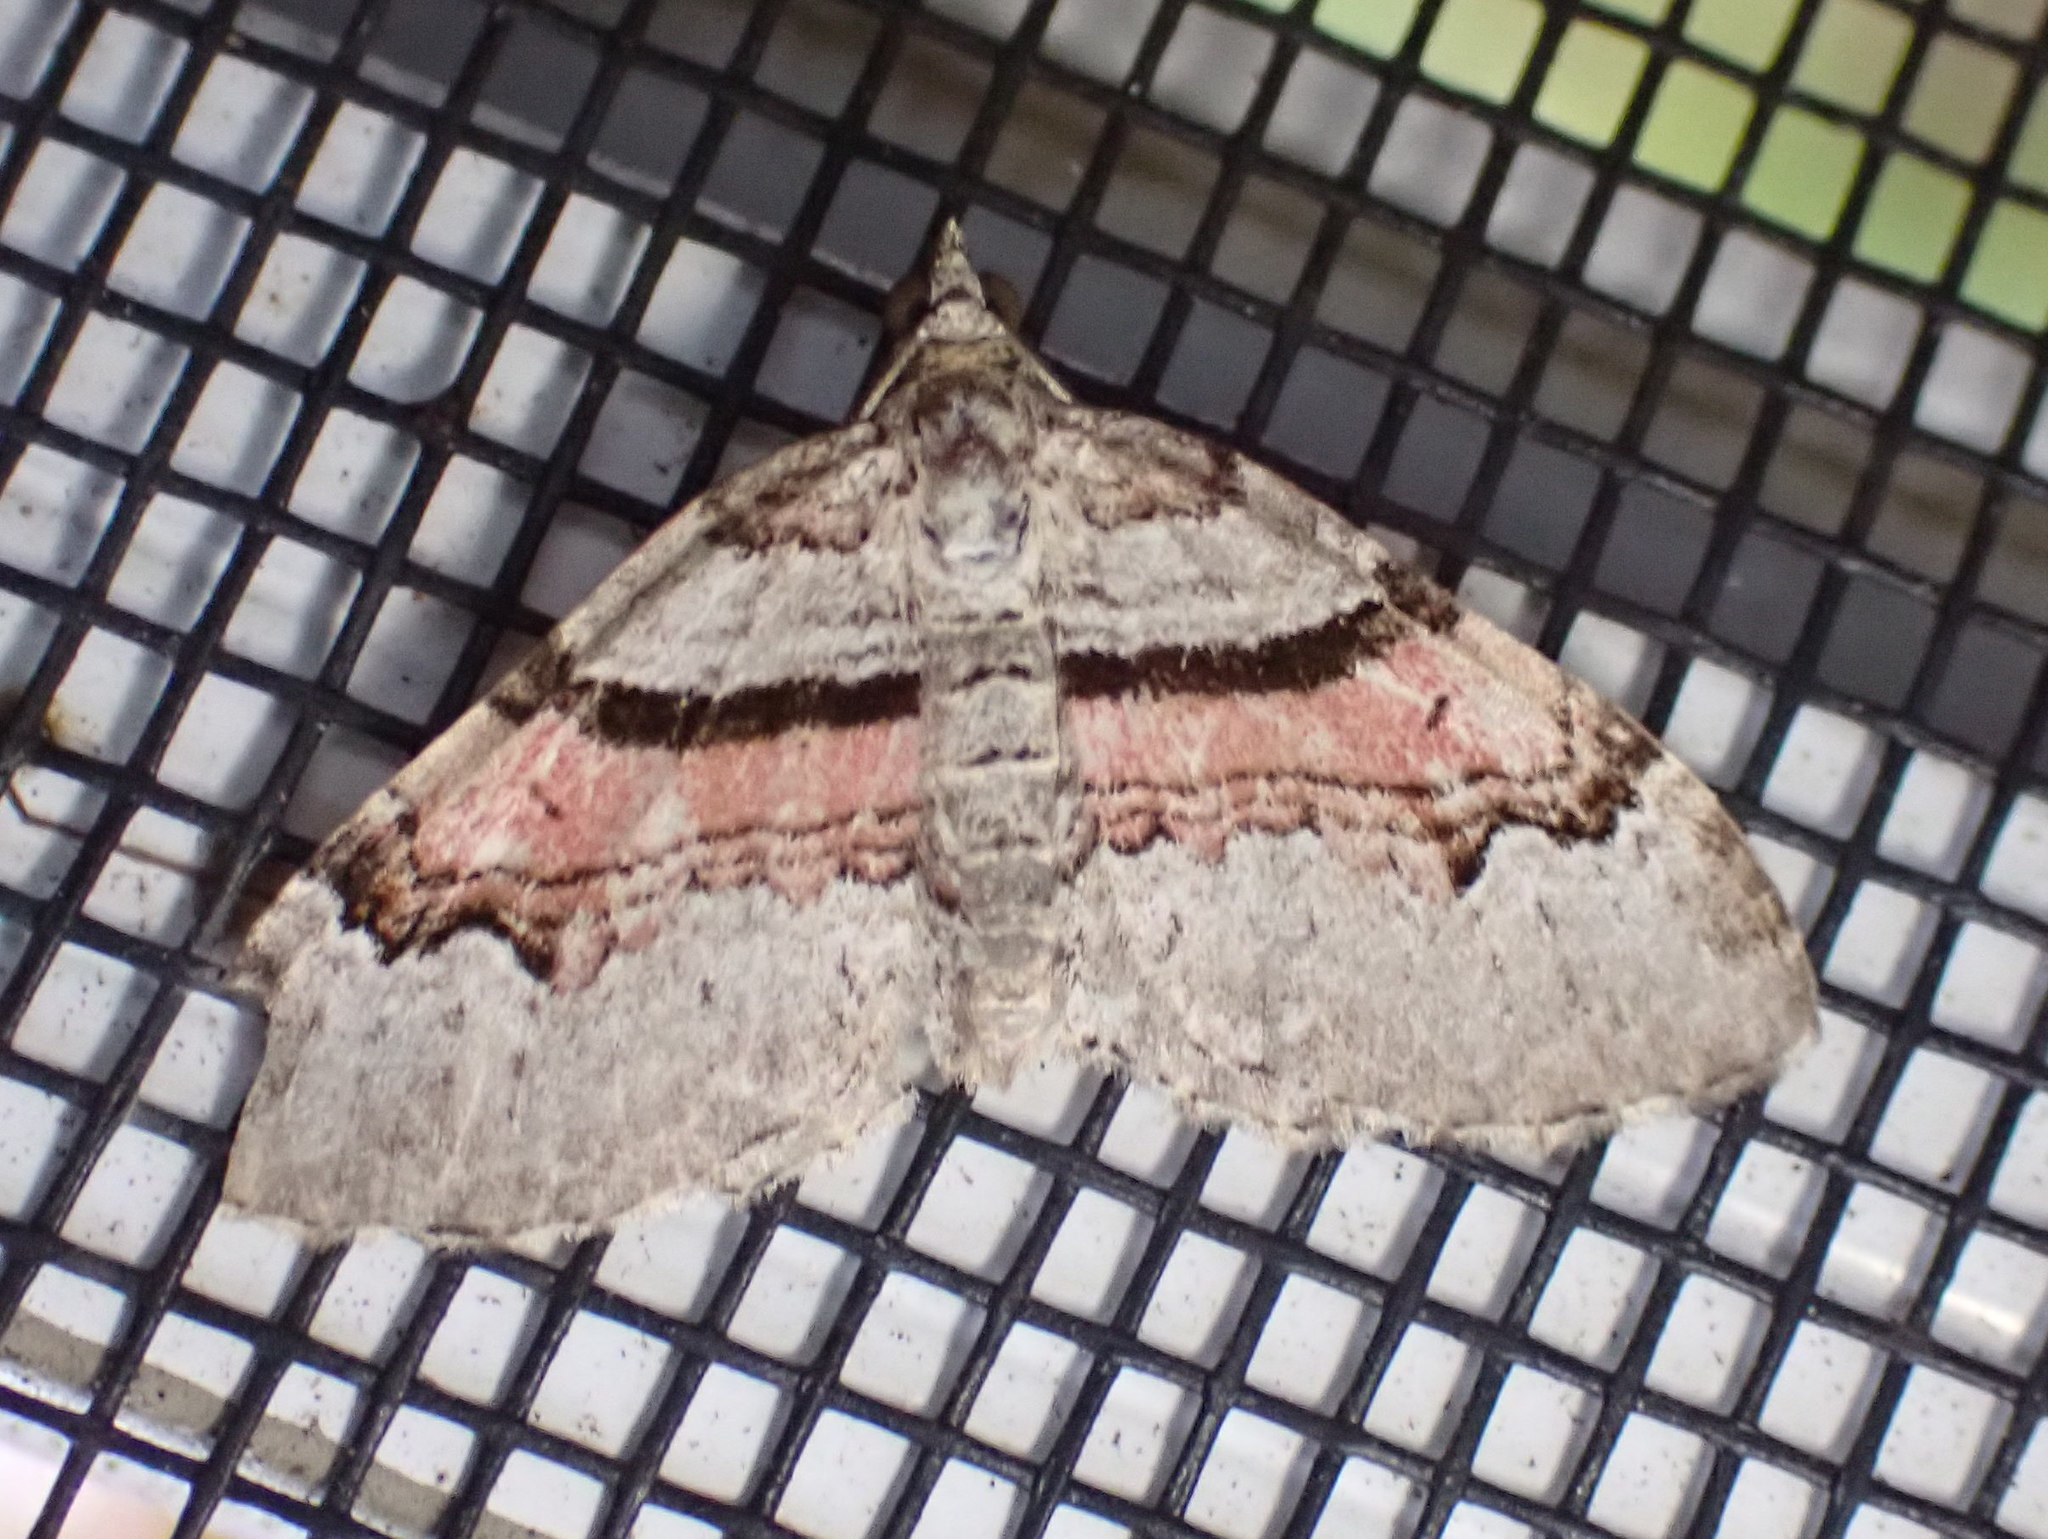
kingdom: Animalia
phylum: Arthropoda
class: Insecta
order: Lepidoptera
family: Geometridae
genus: Xanthorhoe
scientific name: Xanthorhoe labradorensis
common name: Labrador carpet
